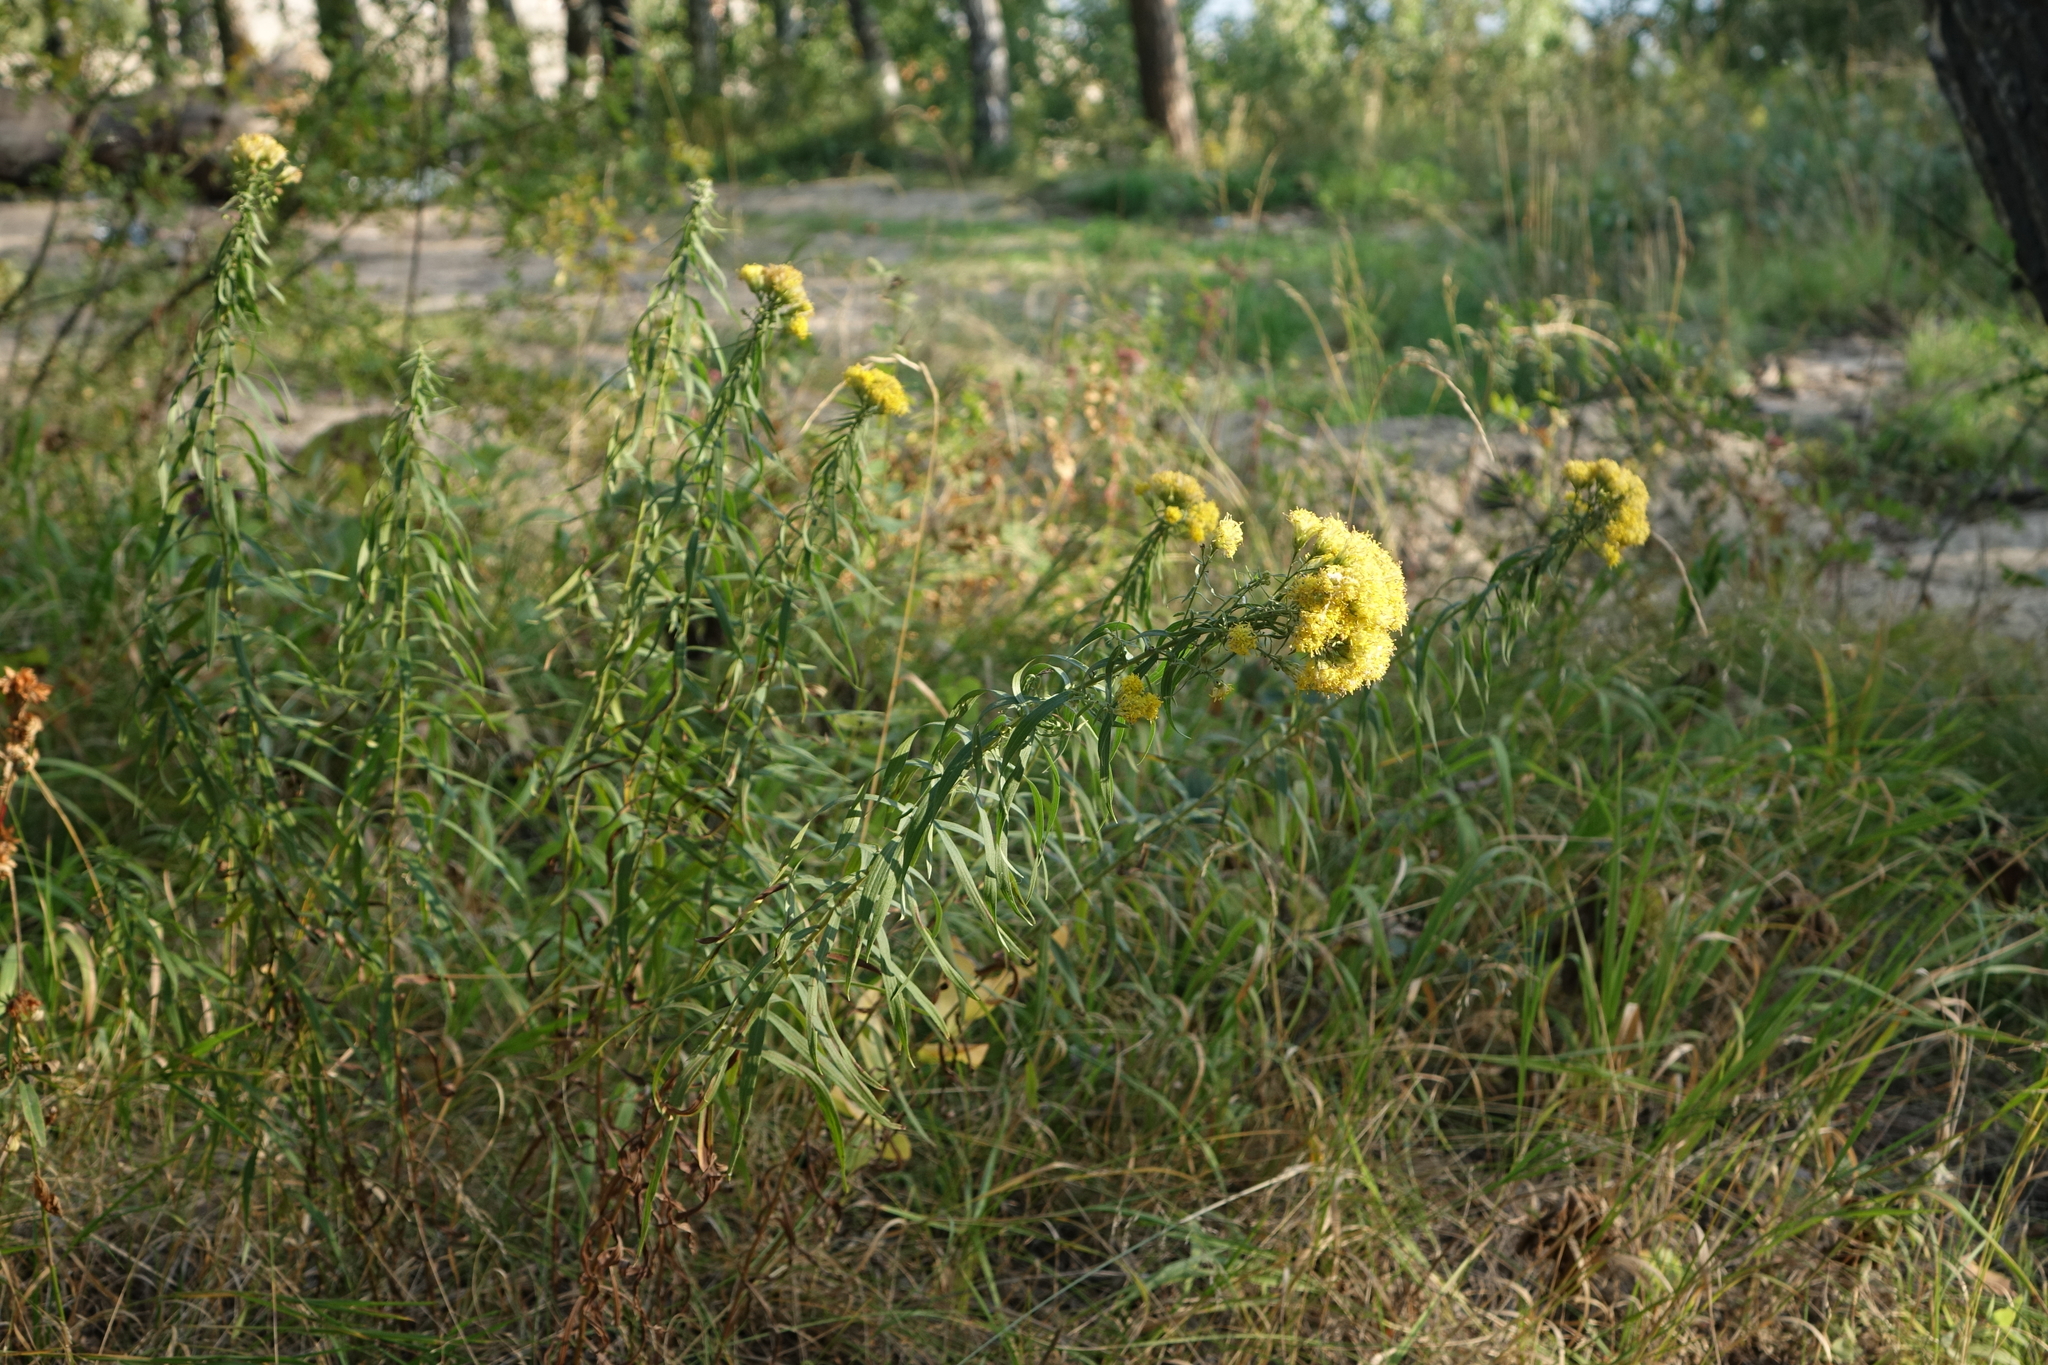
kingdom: Plantae
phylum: Tracheophyta
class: Magnoliopsida
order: Asterales
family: Asteraceae
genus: Galatella
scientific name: Galatella biflora
